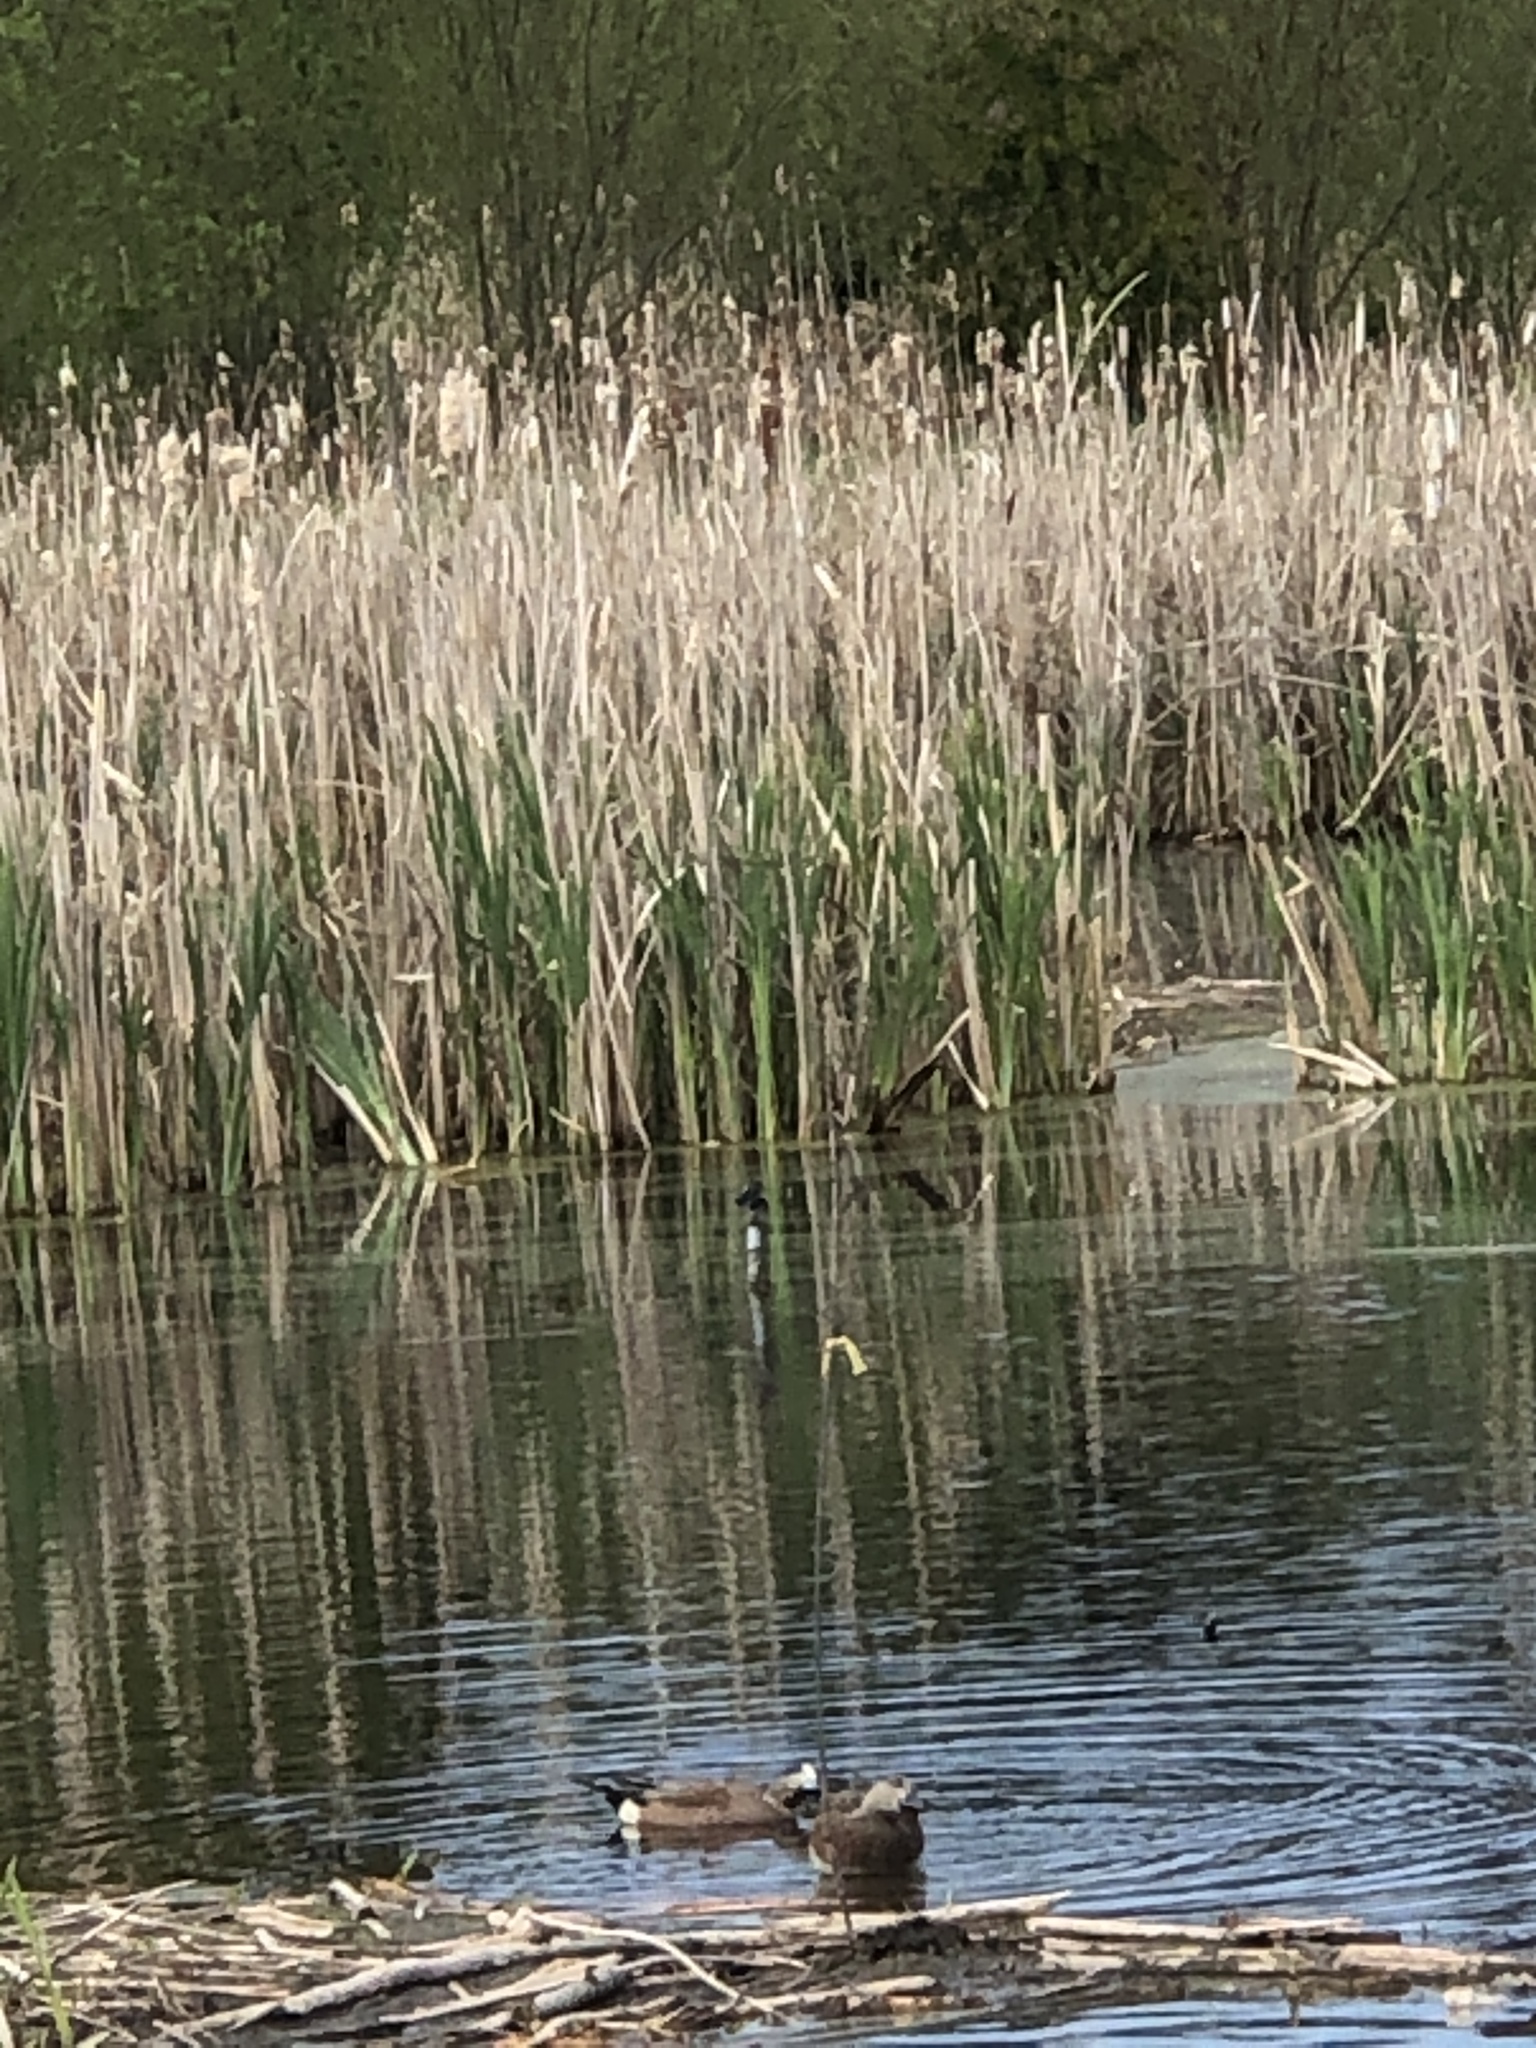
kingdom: Animalia
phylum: Chordata
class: Aves
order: Anseriformes
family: Anatidae
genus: Mareca
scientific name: Mareca americana
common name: American wigeon
